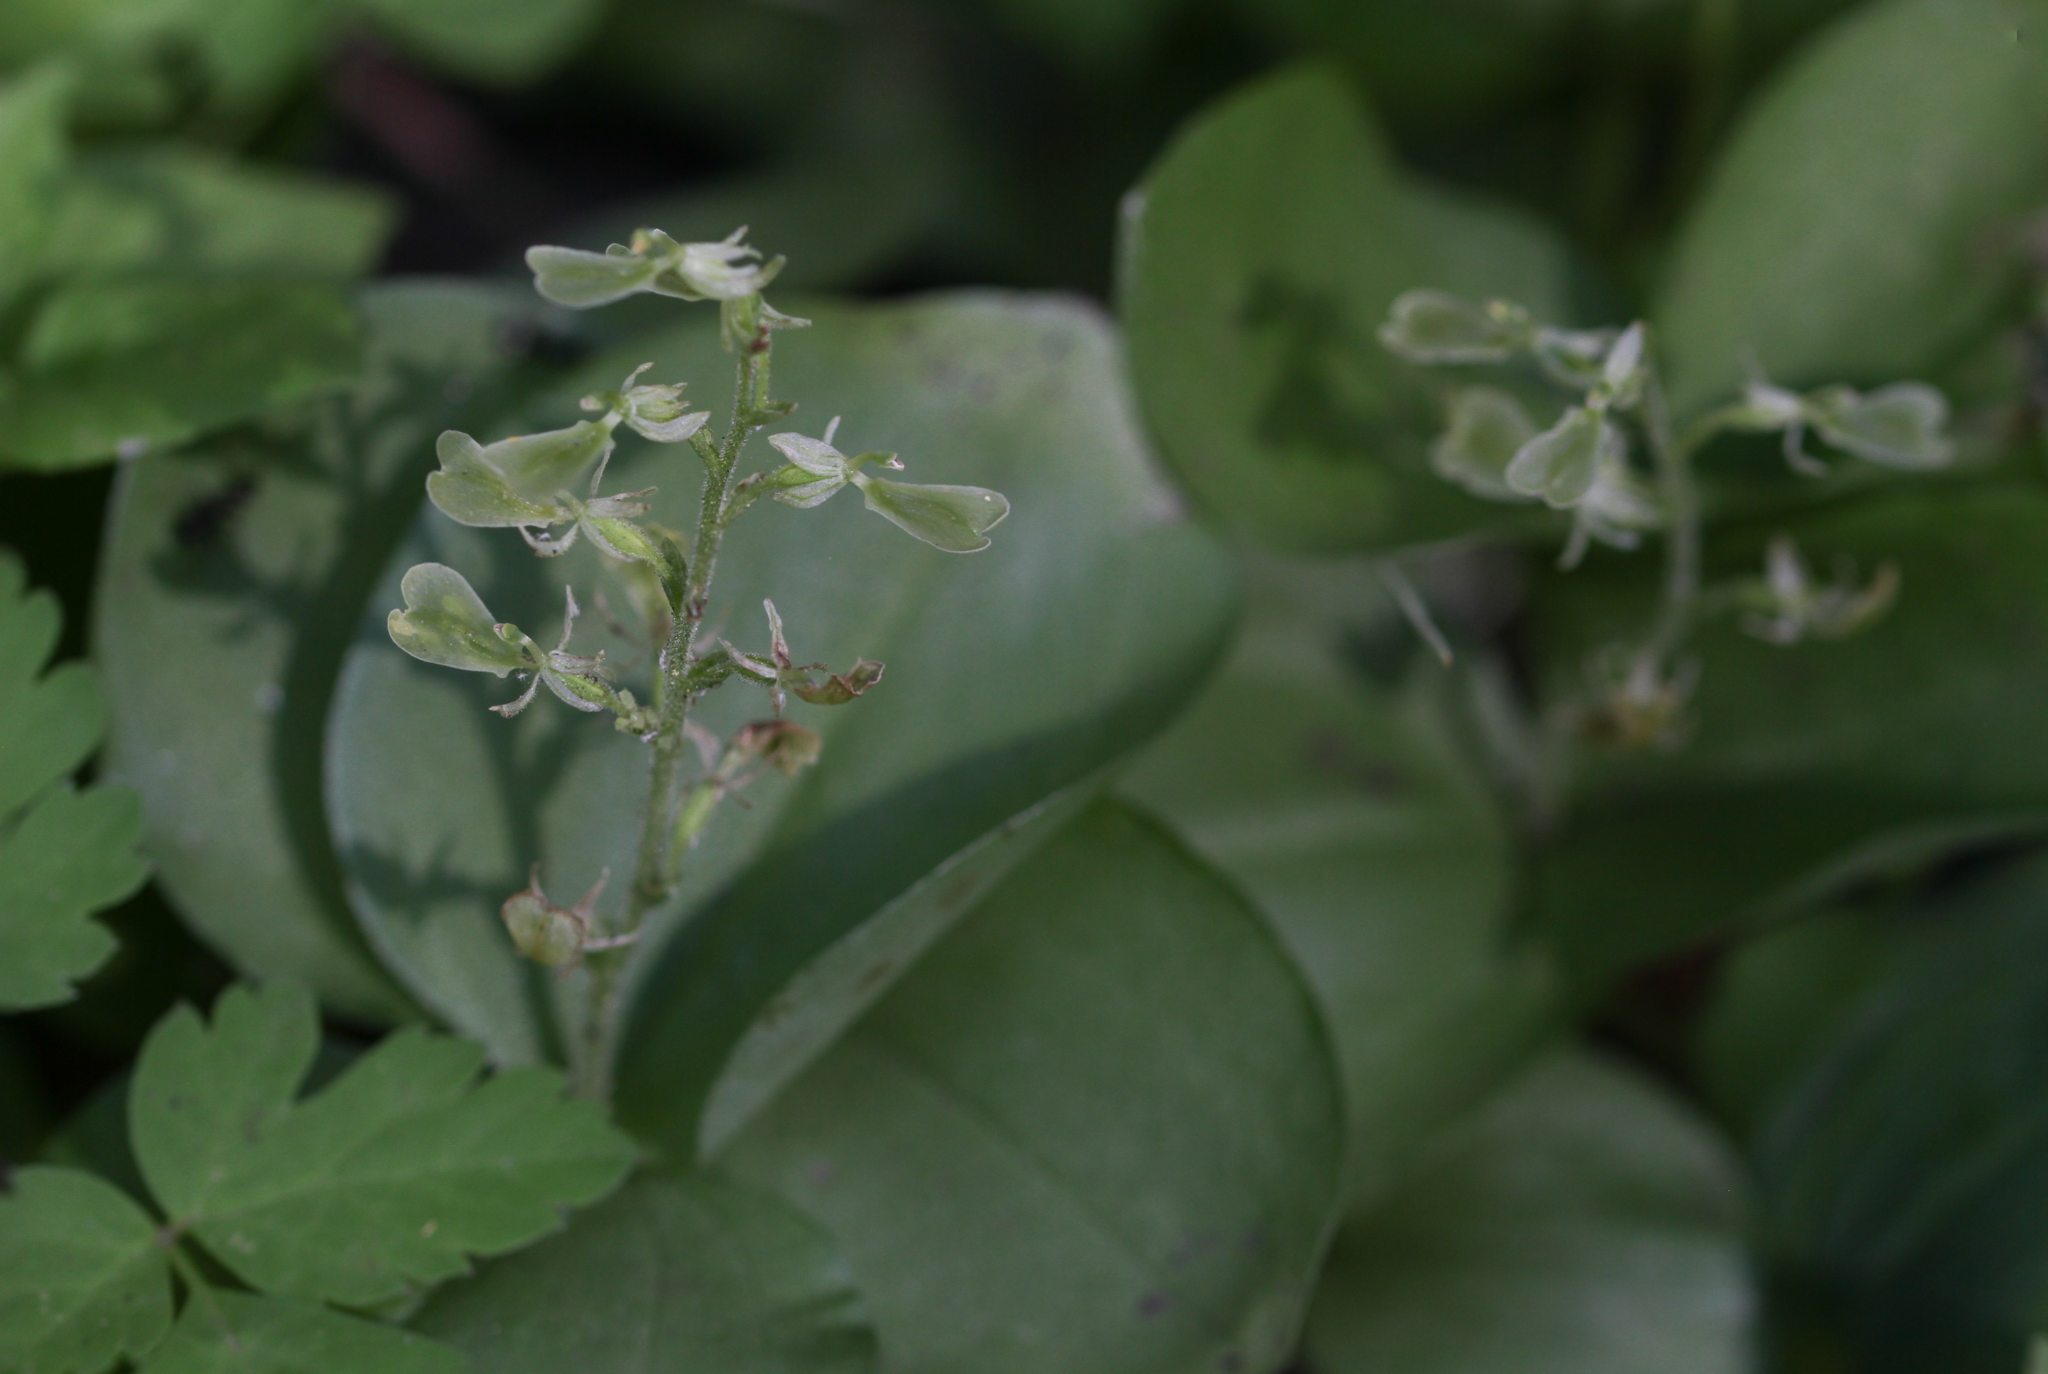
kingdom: Plantae
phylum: Tracheophyta
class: Liliopsida
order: Asparagales
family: Orchidaceae
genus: Neottia
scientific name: Neottia convallarioides
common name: Broadleaf twayblade
